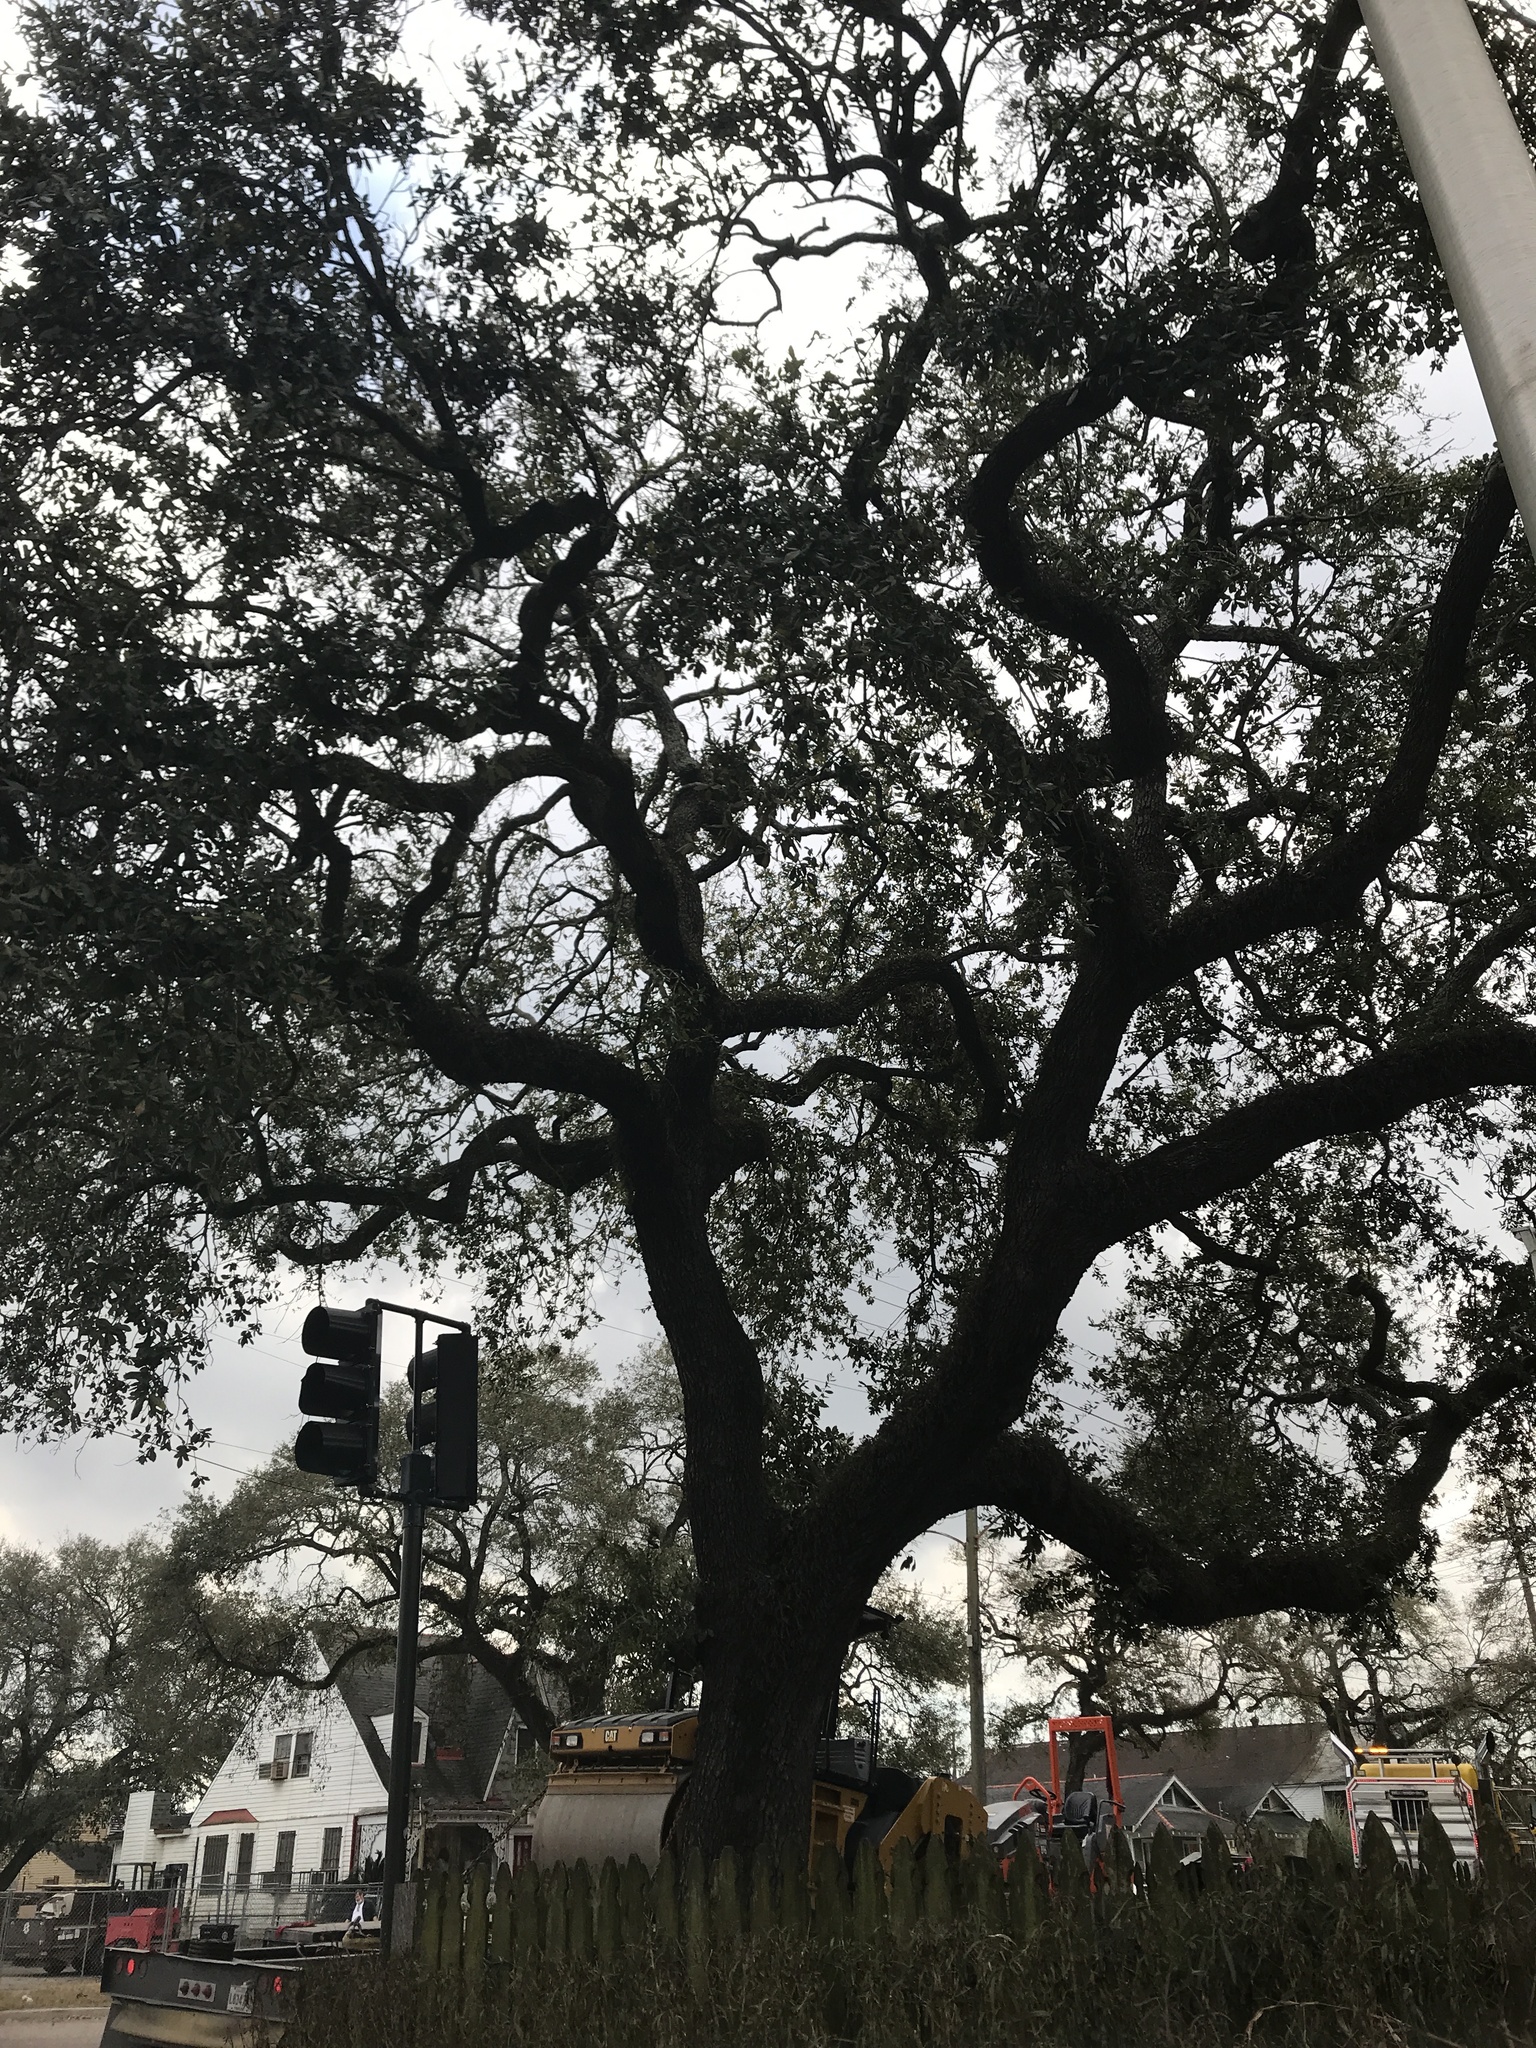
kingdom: Plantae
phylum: Tracheophyta
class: Magnoliopsida
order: Fagales
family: Fagaceae
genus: Quercus
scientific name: Quercus virginiana
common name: Southern live oak
